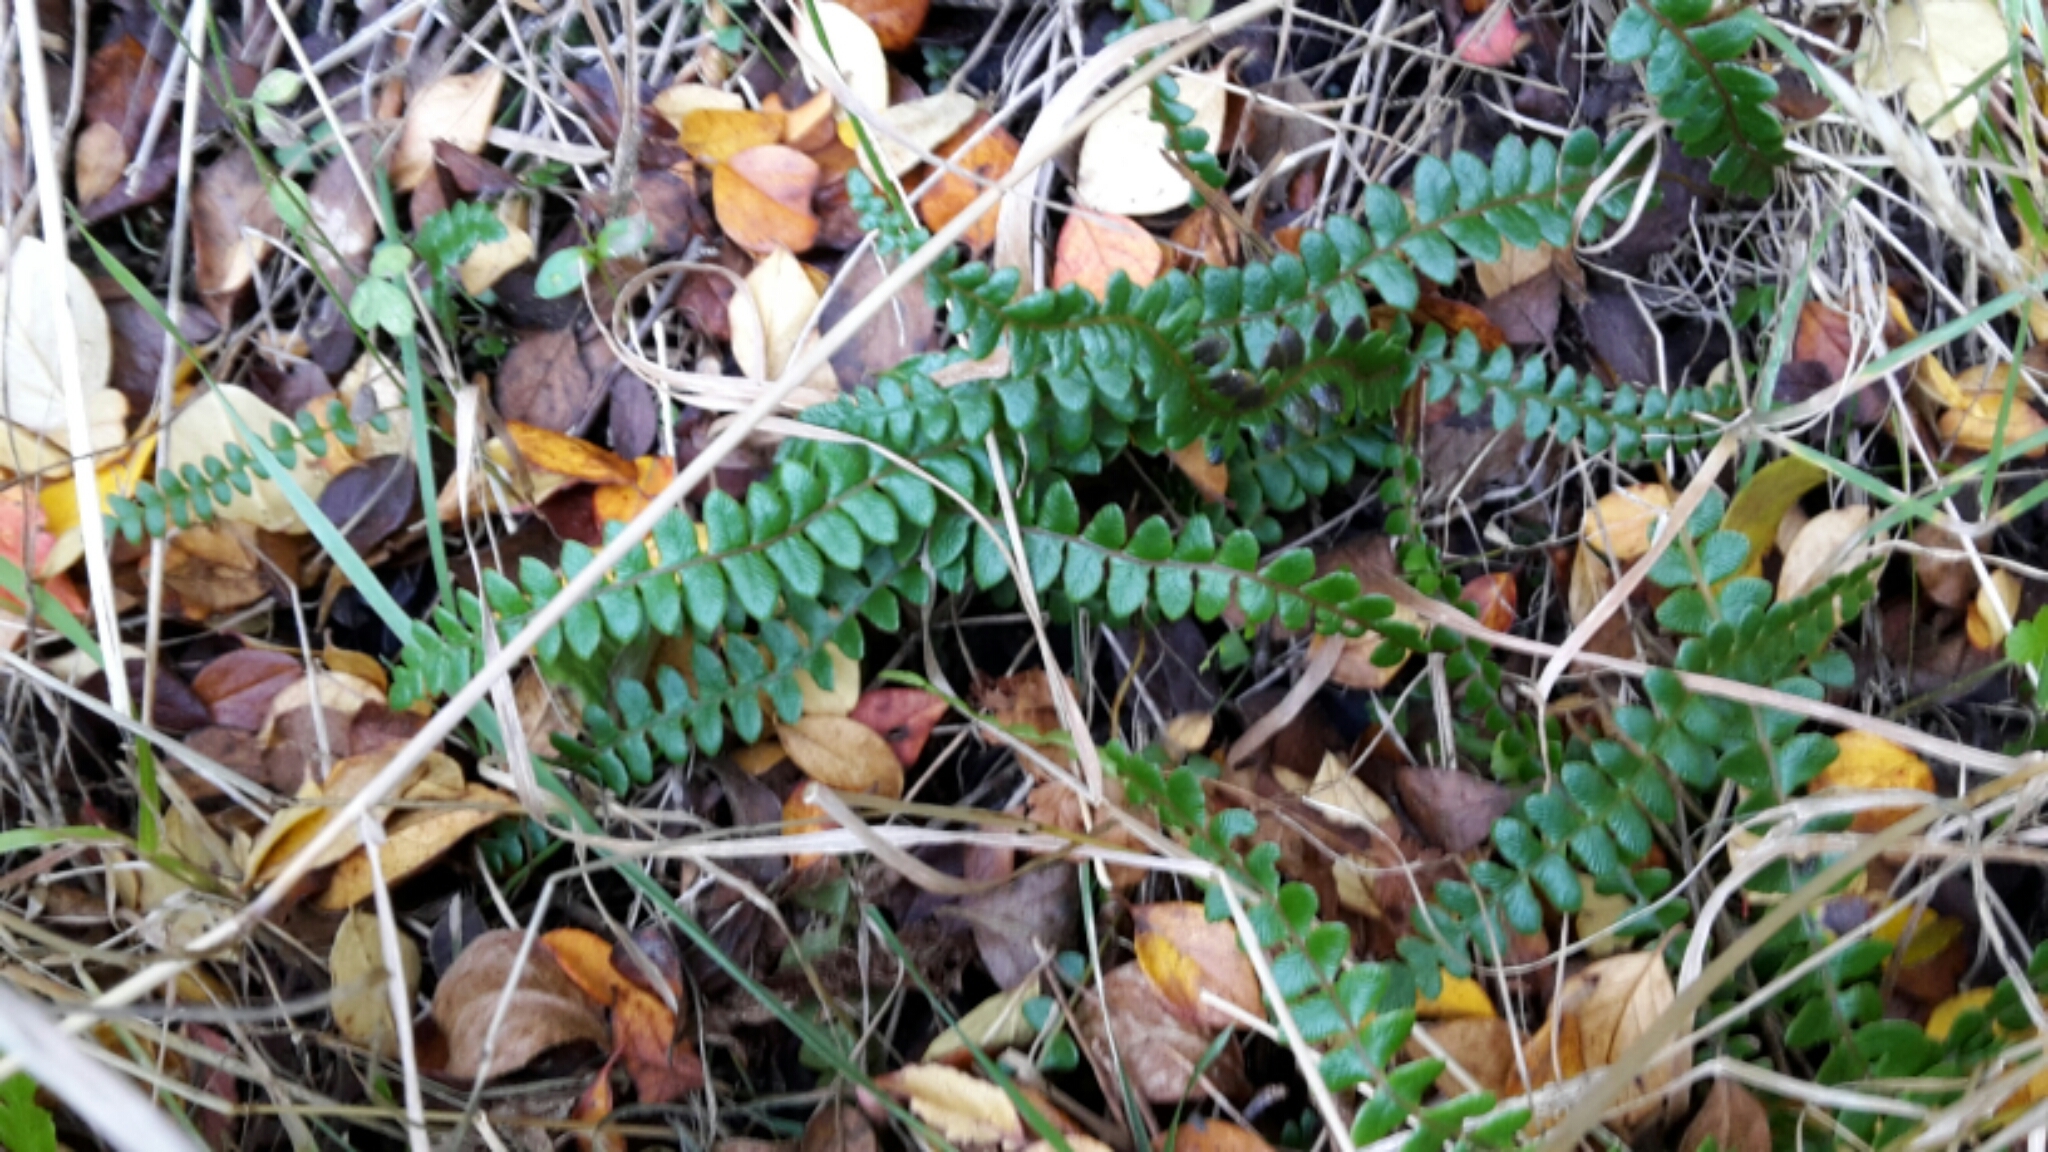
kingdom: Plantae
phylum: Tracheophyta
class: Polypodiopsida
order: Polypodiales
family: Blechnaceae
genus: Austroblechnum
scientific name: Austroblechnum penna-marina
